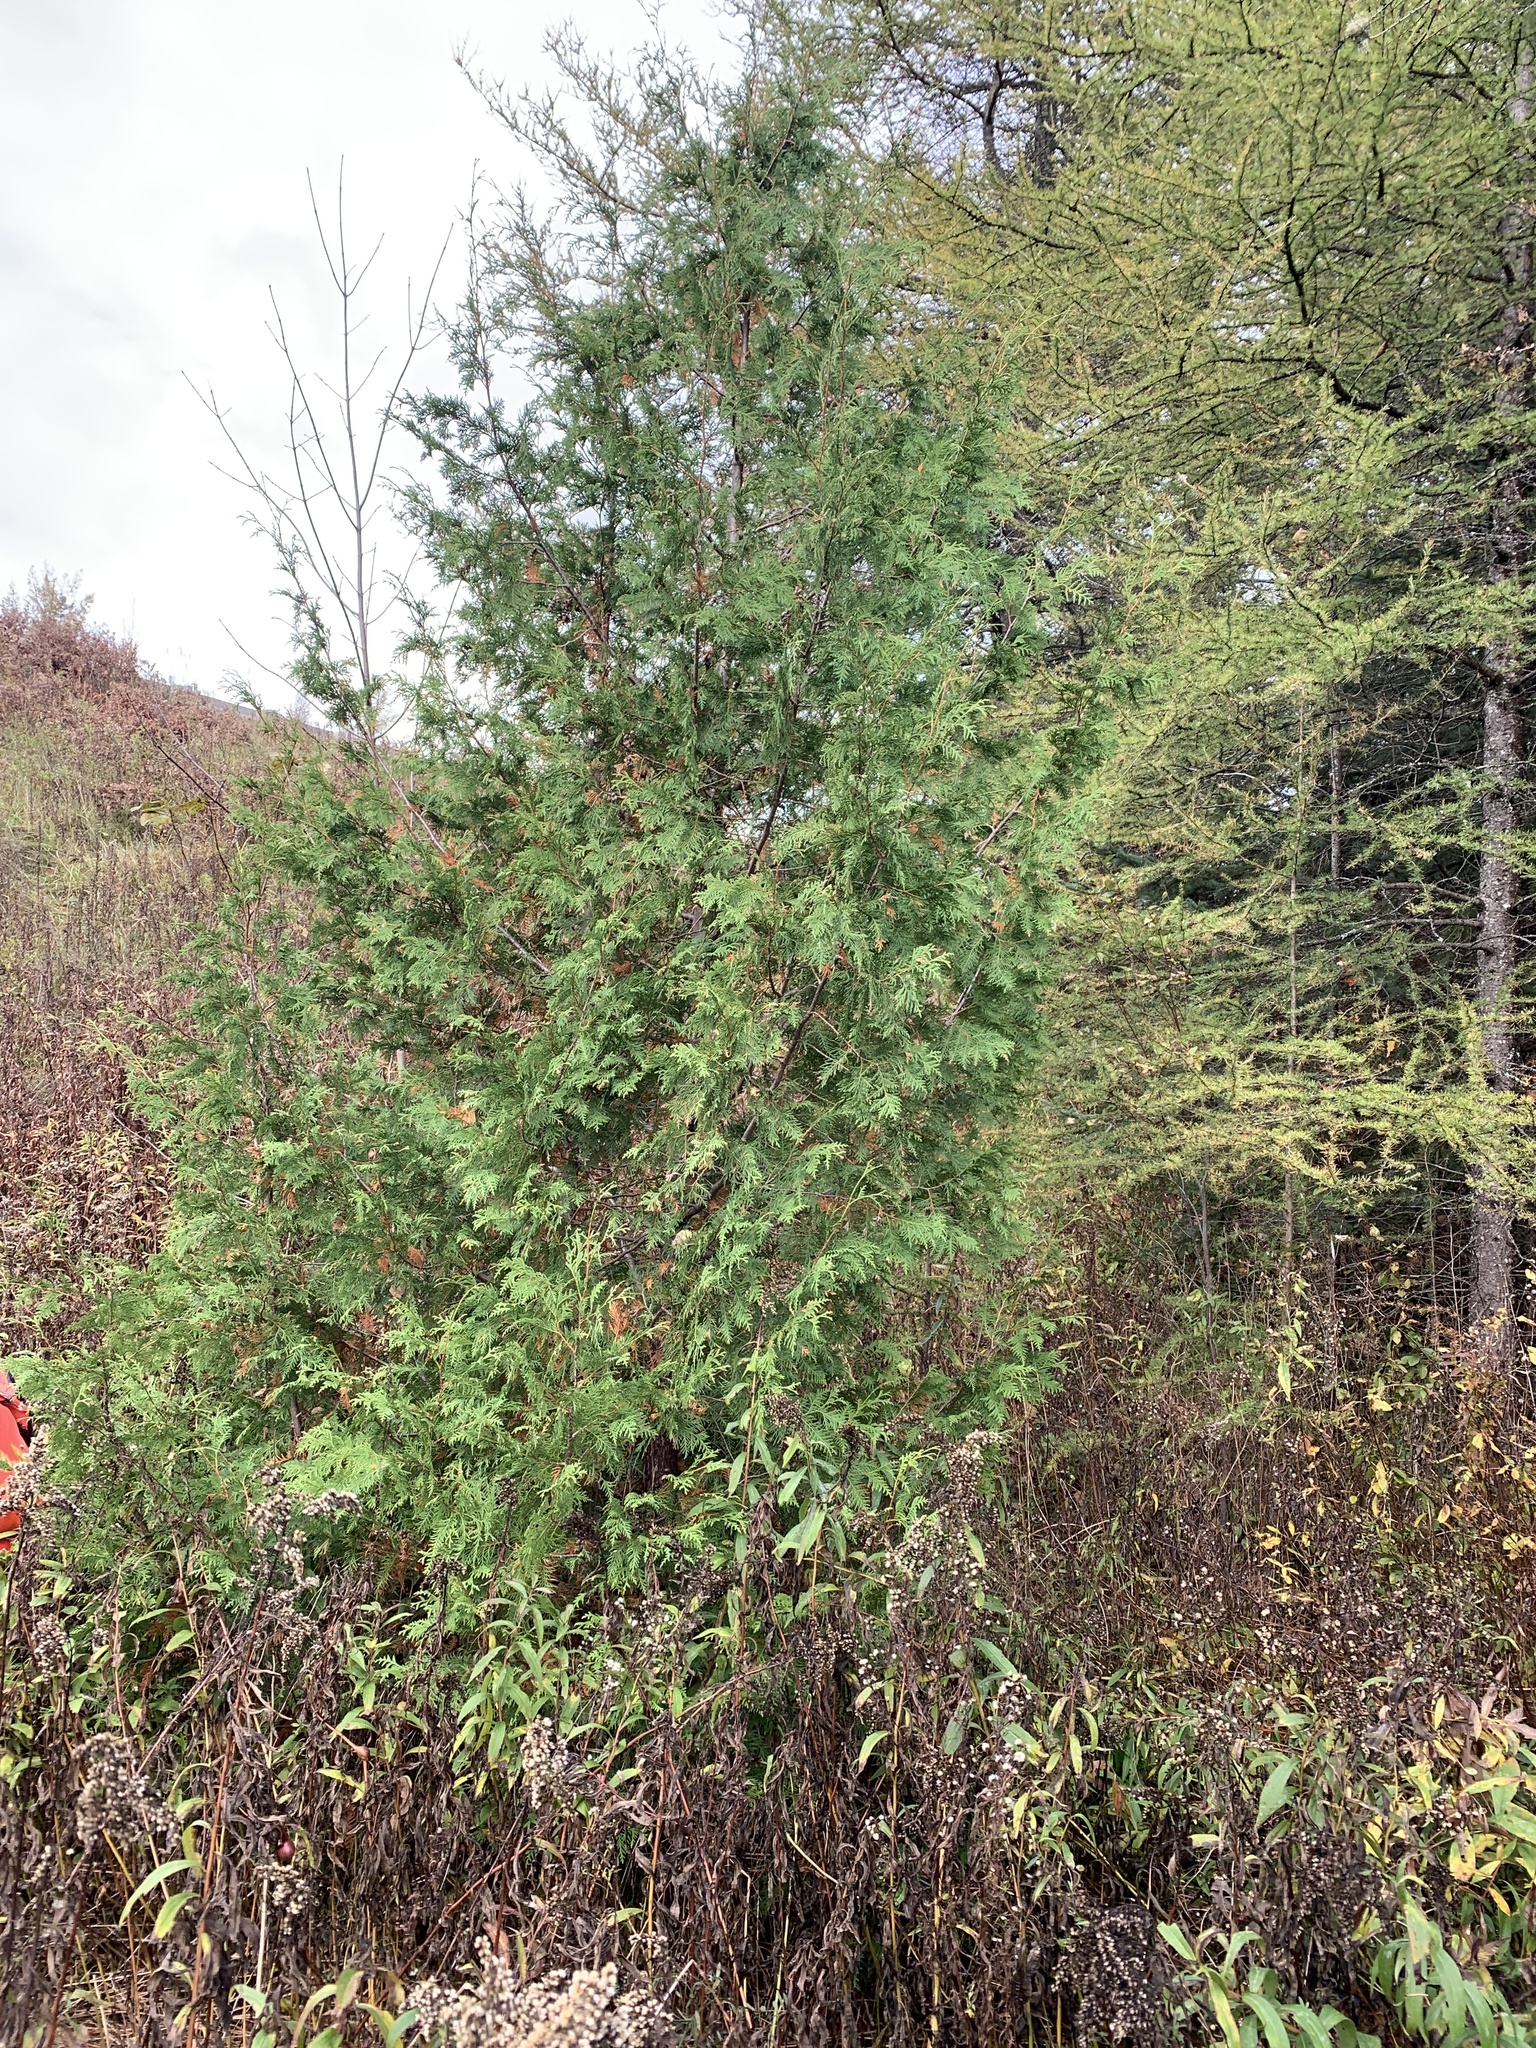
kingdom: Plantae
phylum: Tracheophyta
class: Pinopsida
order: Pinales
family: Cupressaceae
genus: Thuja
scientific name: Thuja occidentalis
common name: Northern white-cedar
